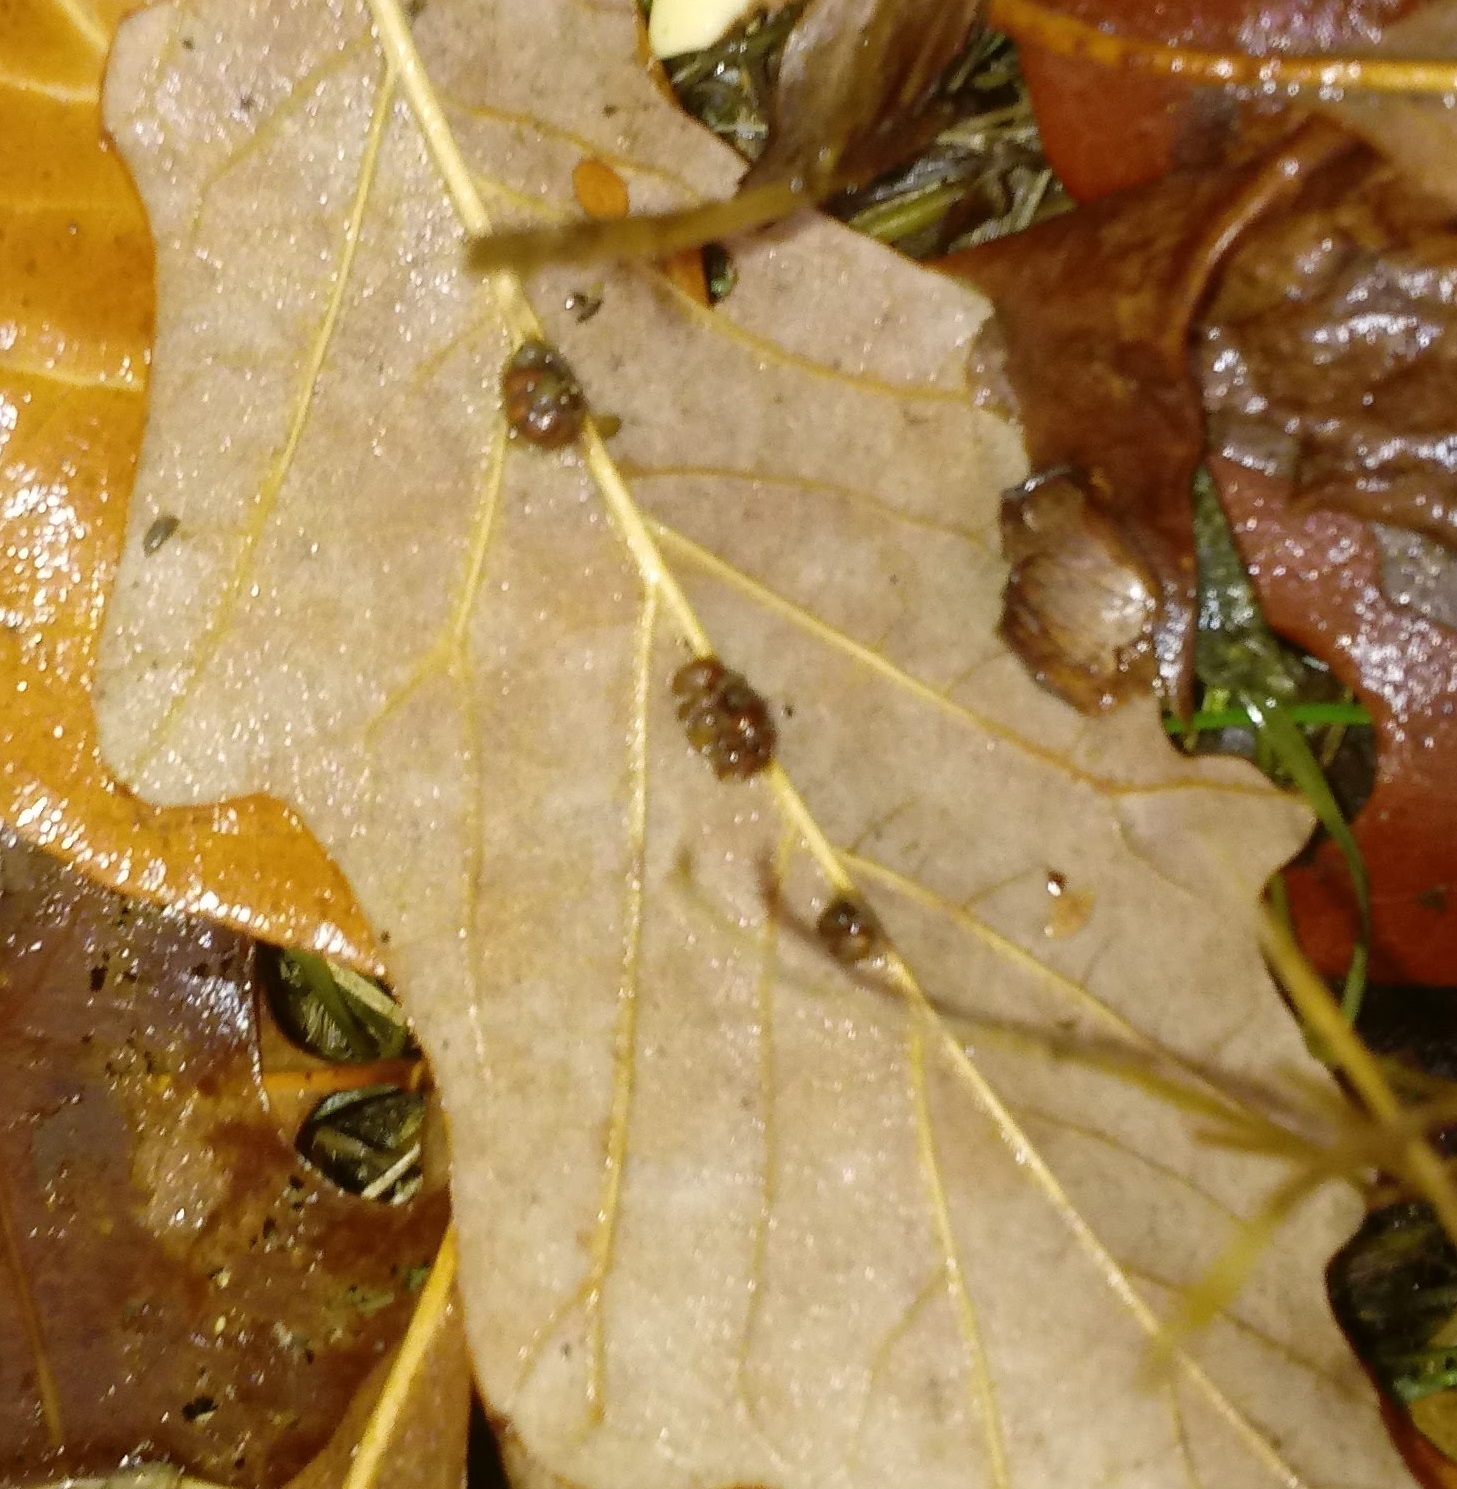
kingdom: Animalia
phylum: Arthropoda
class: Insecta
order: Hymenoptera
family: Cynipidae
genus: Andricus
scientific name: Andricus Druon ignotum
